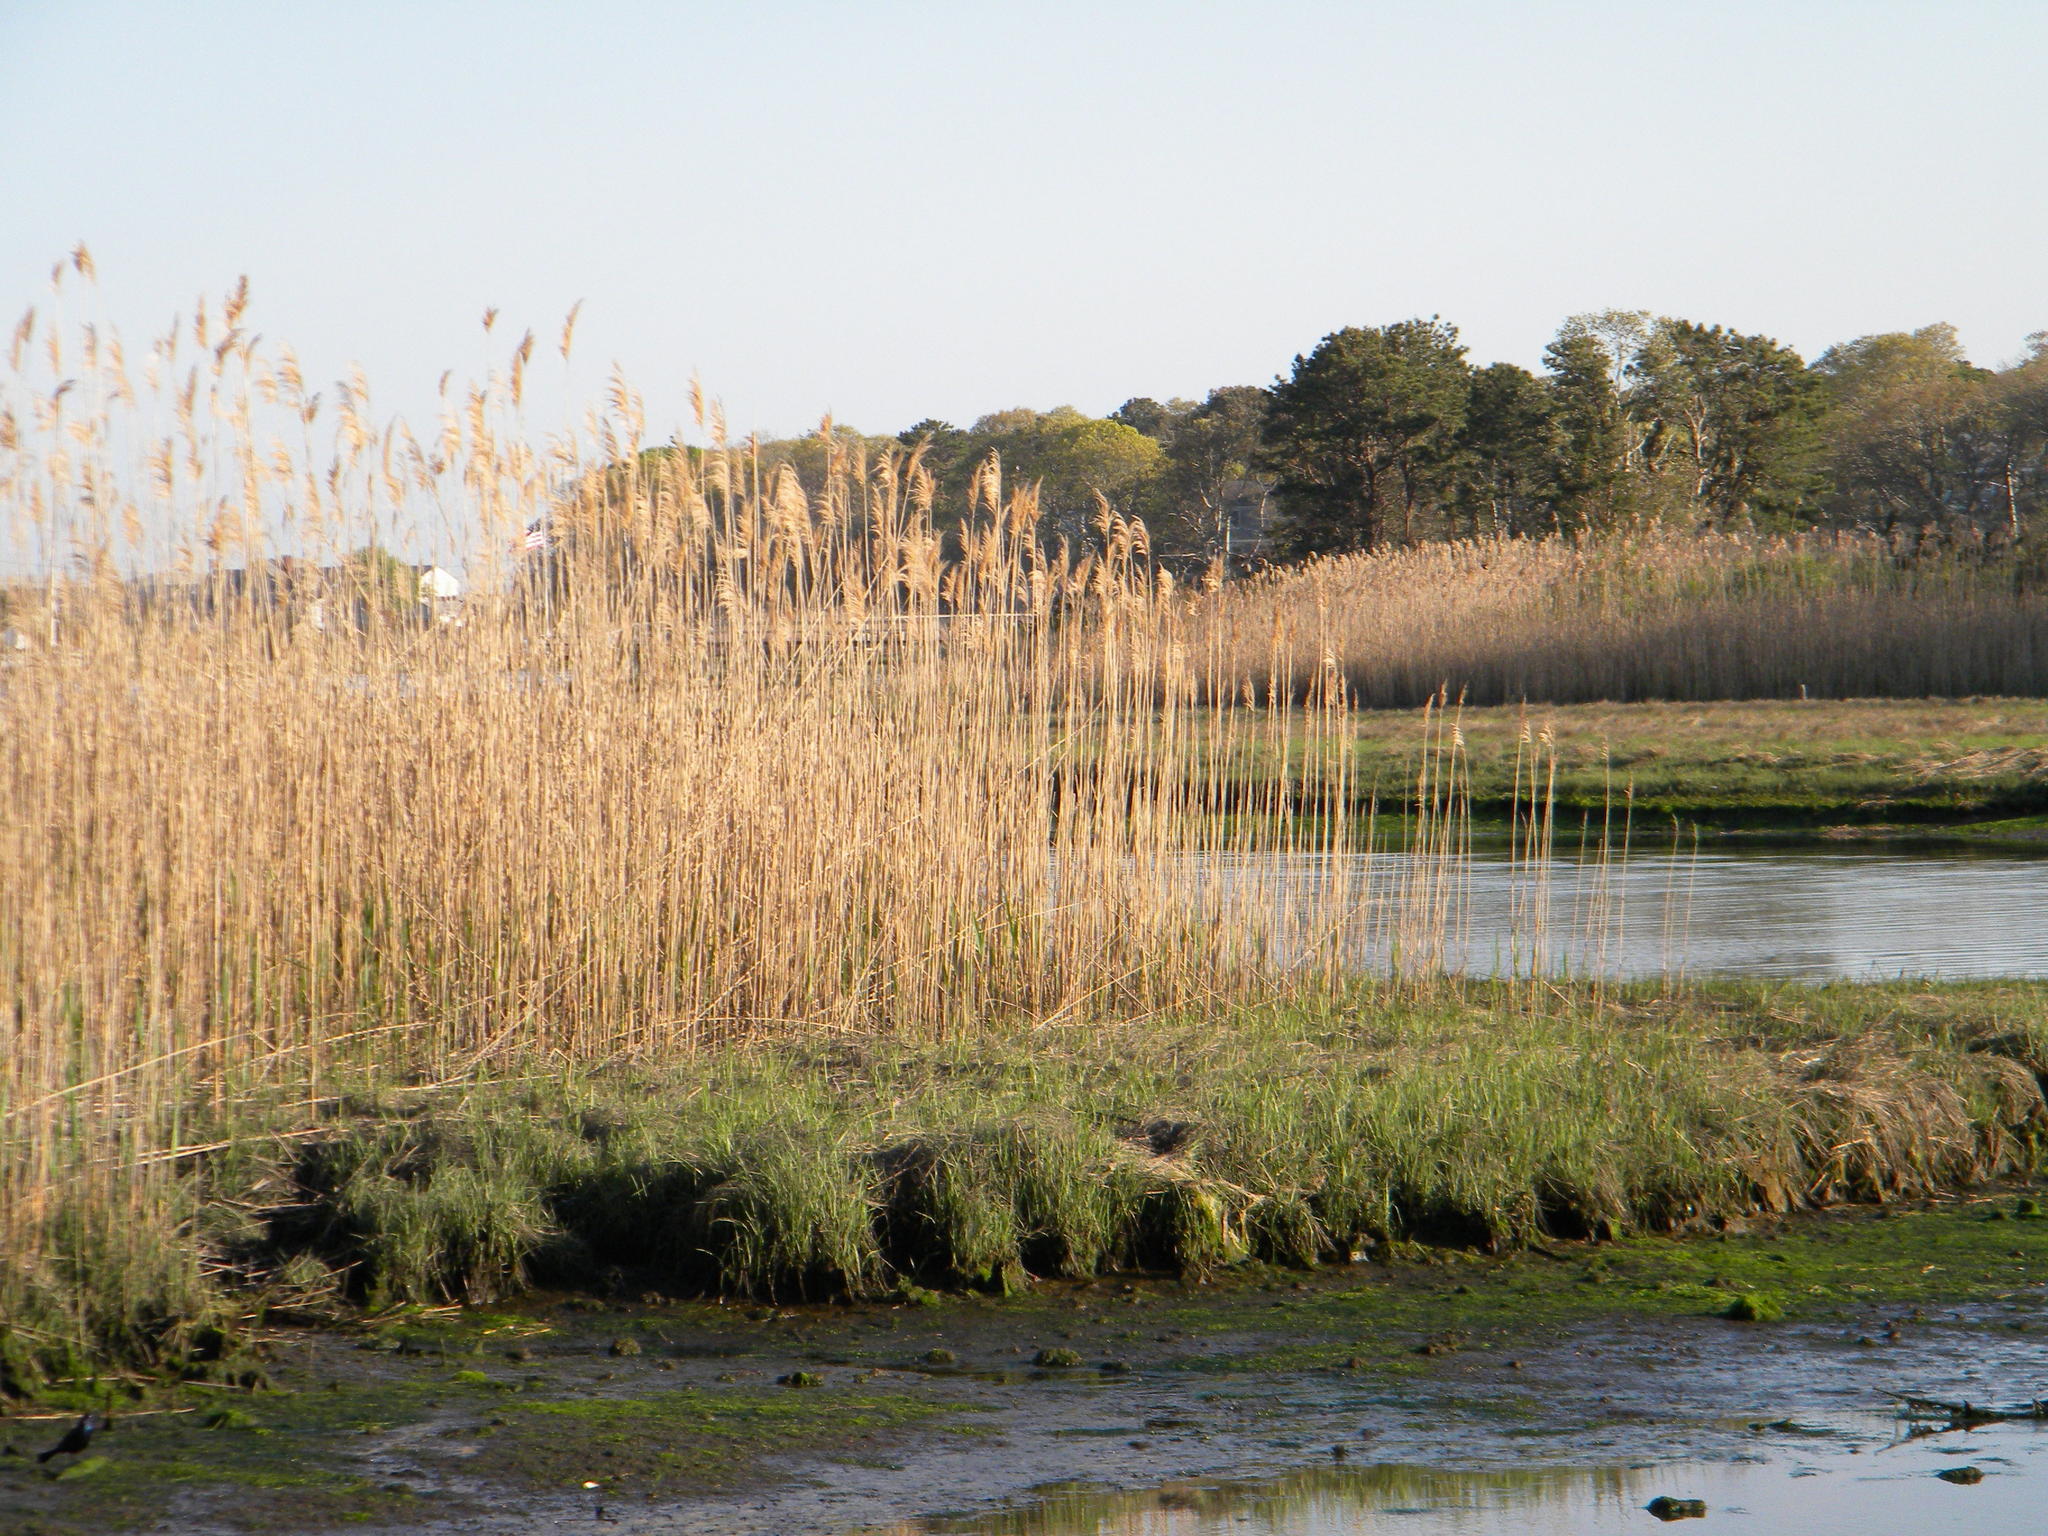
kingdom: Plantae
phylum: Tracheophyta
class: Liliopsida
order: Poales
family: Poaceae
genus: Phragmites
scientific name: Phragmites australis
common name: Common reed
